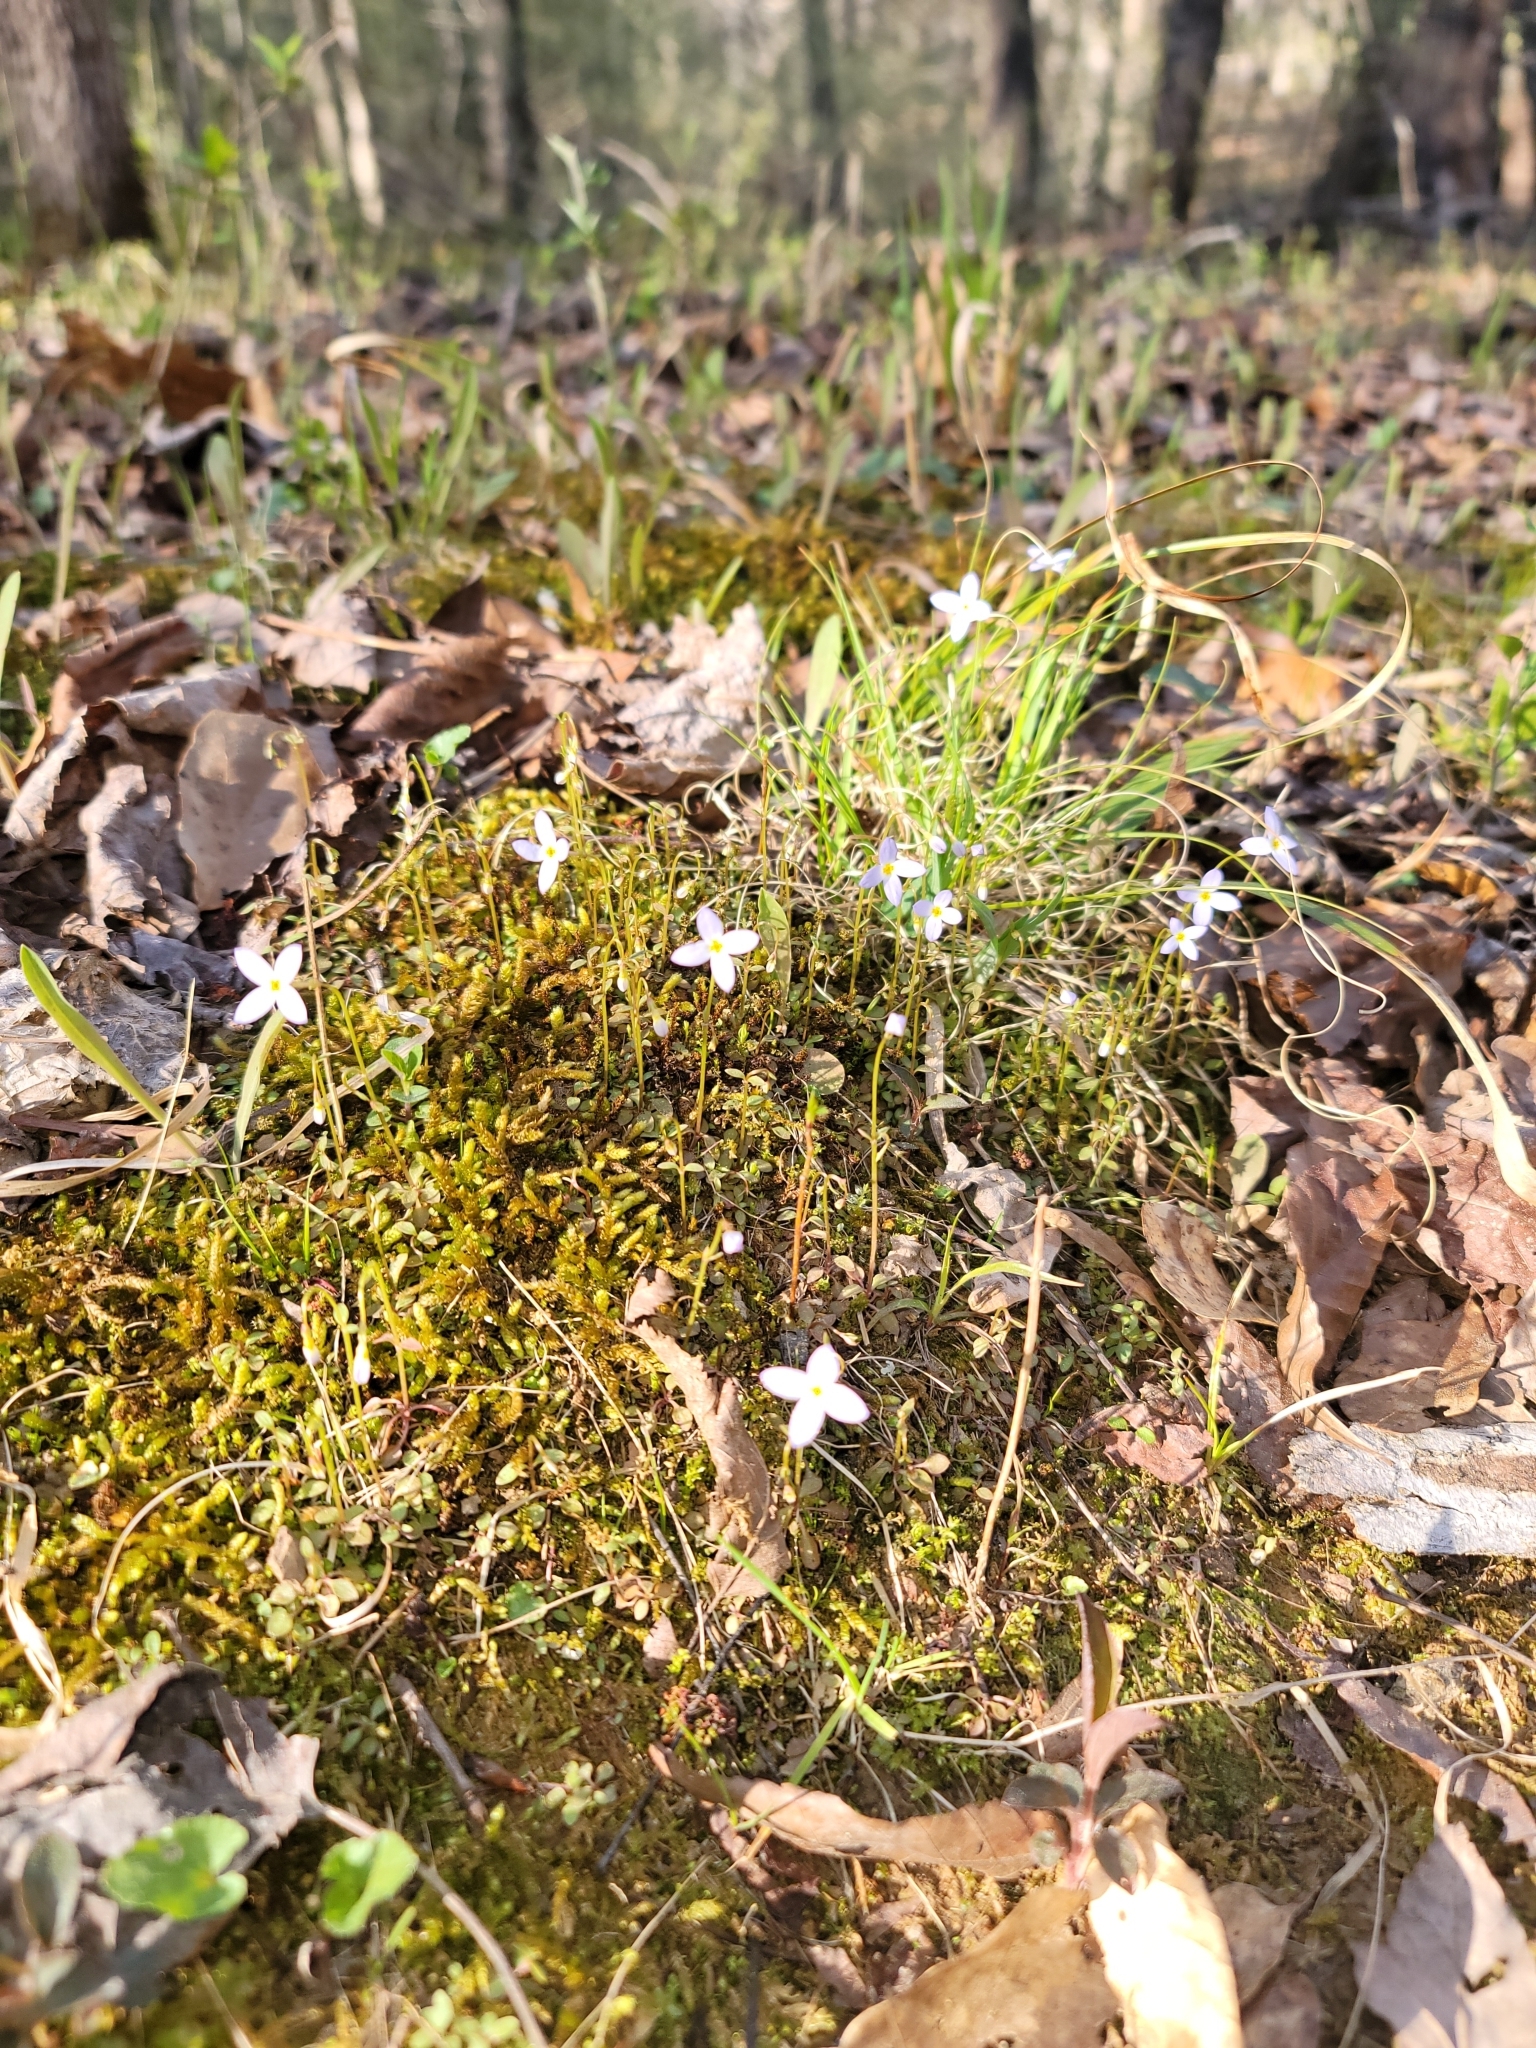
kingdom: Plantae
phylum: Tracheophyta
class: Magnoliopsida
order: Gentianales
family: Rubiaceae
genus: Houstonia
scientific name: Houstonia caerulea
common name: Bluets
